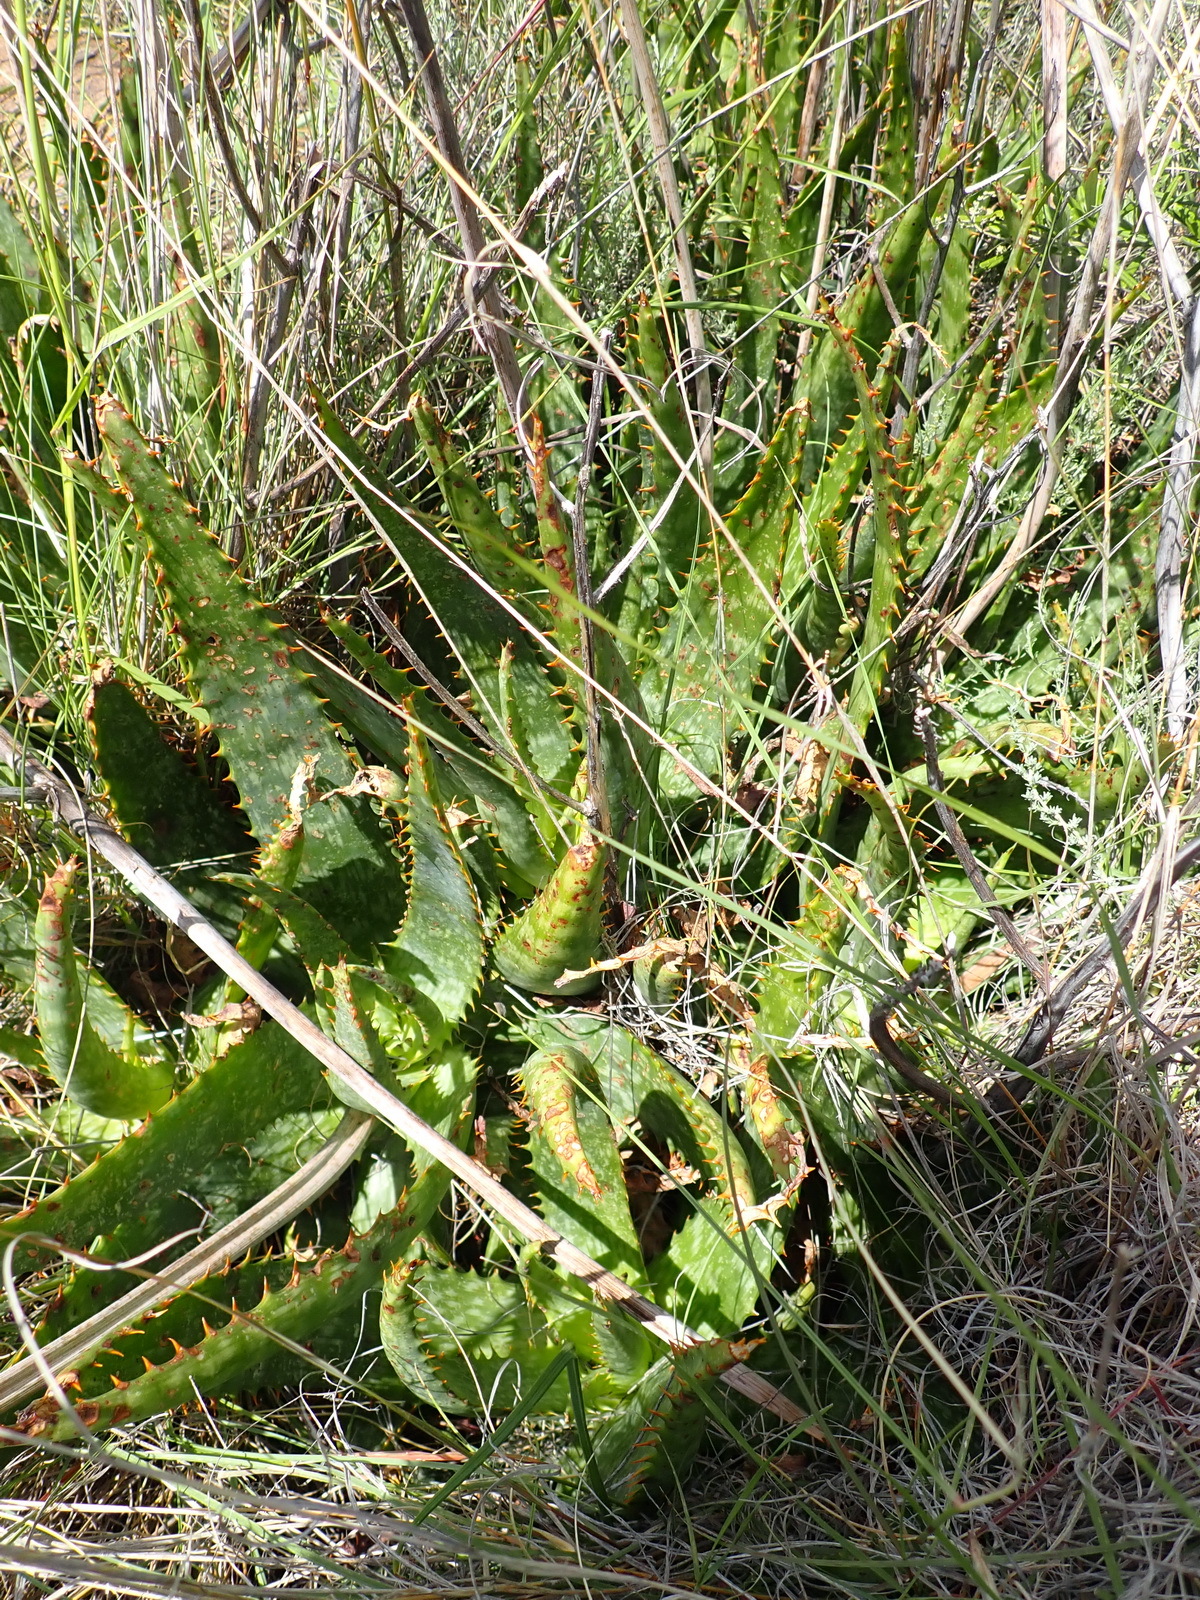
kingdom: Plantae
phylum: Tracheophyta
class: Liliopsida
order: Asparagales
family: Asphodelaceae
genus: Aloe
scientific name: Aloe grandidentata
